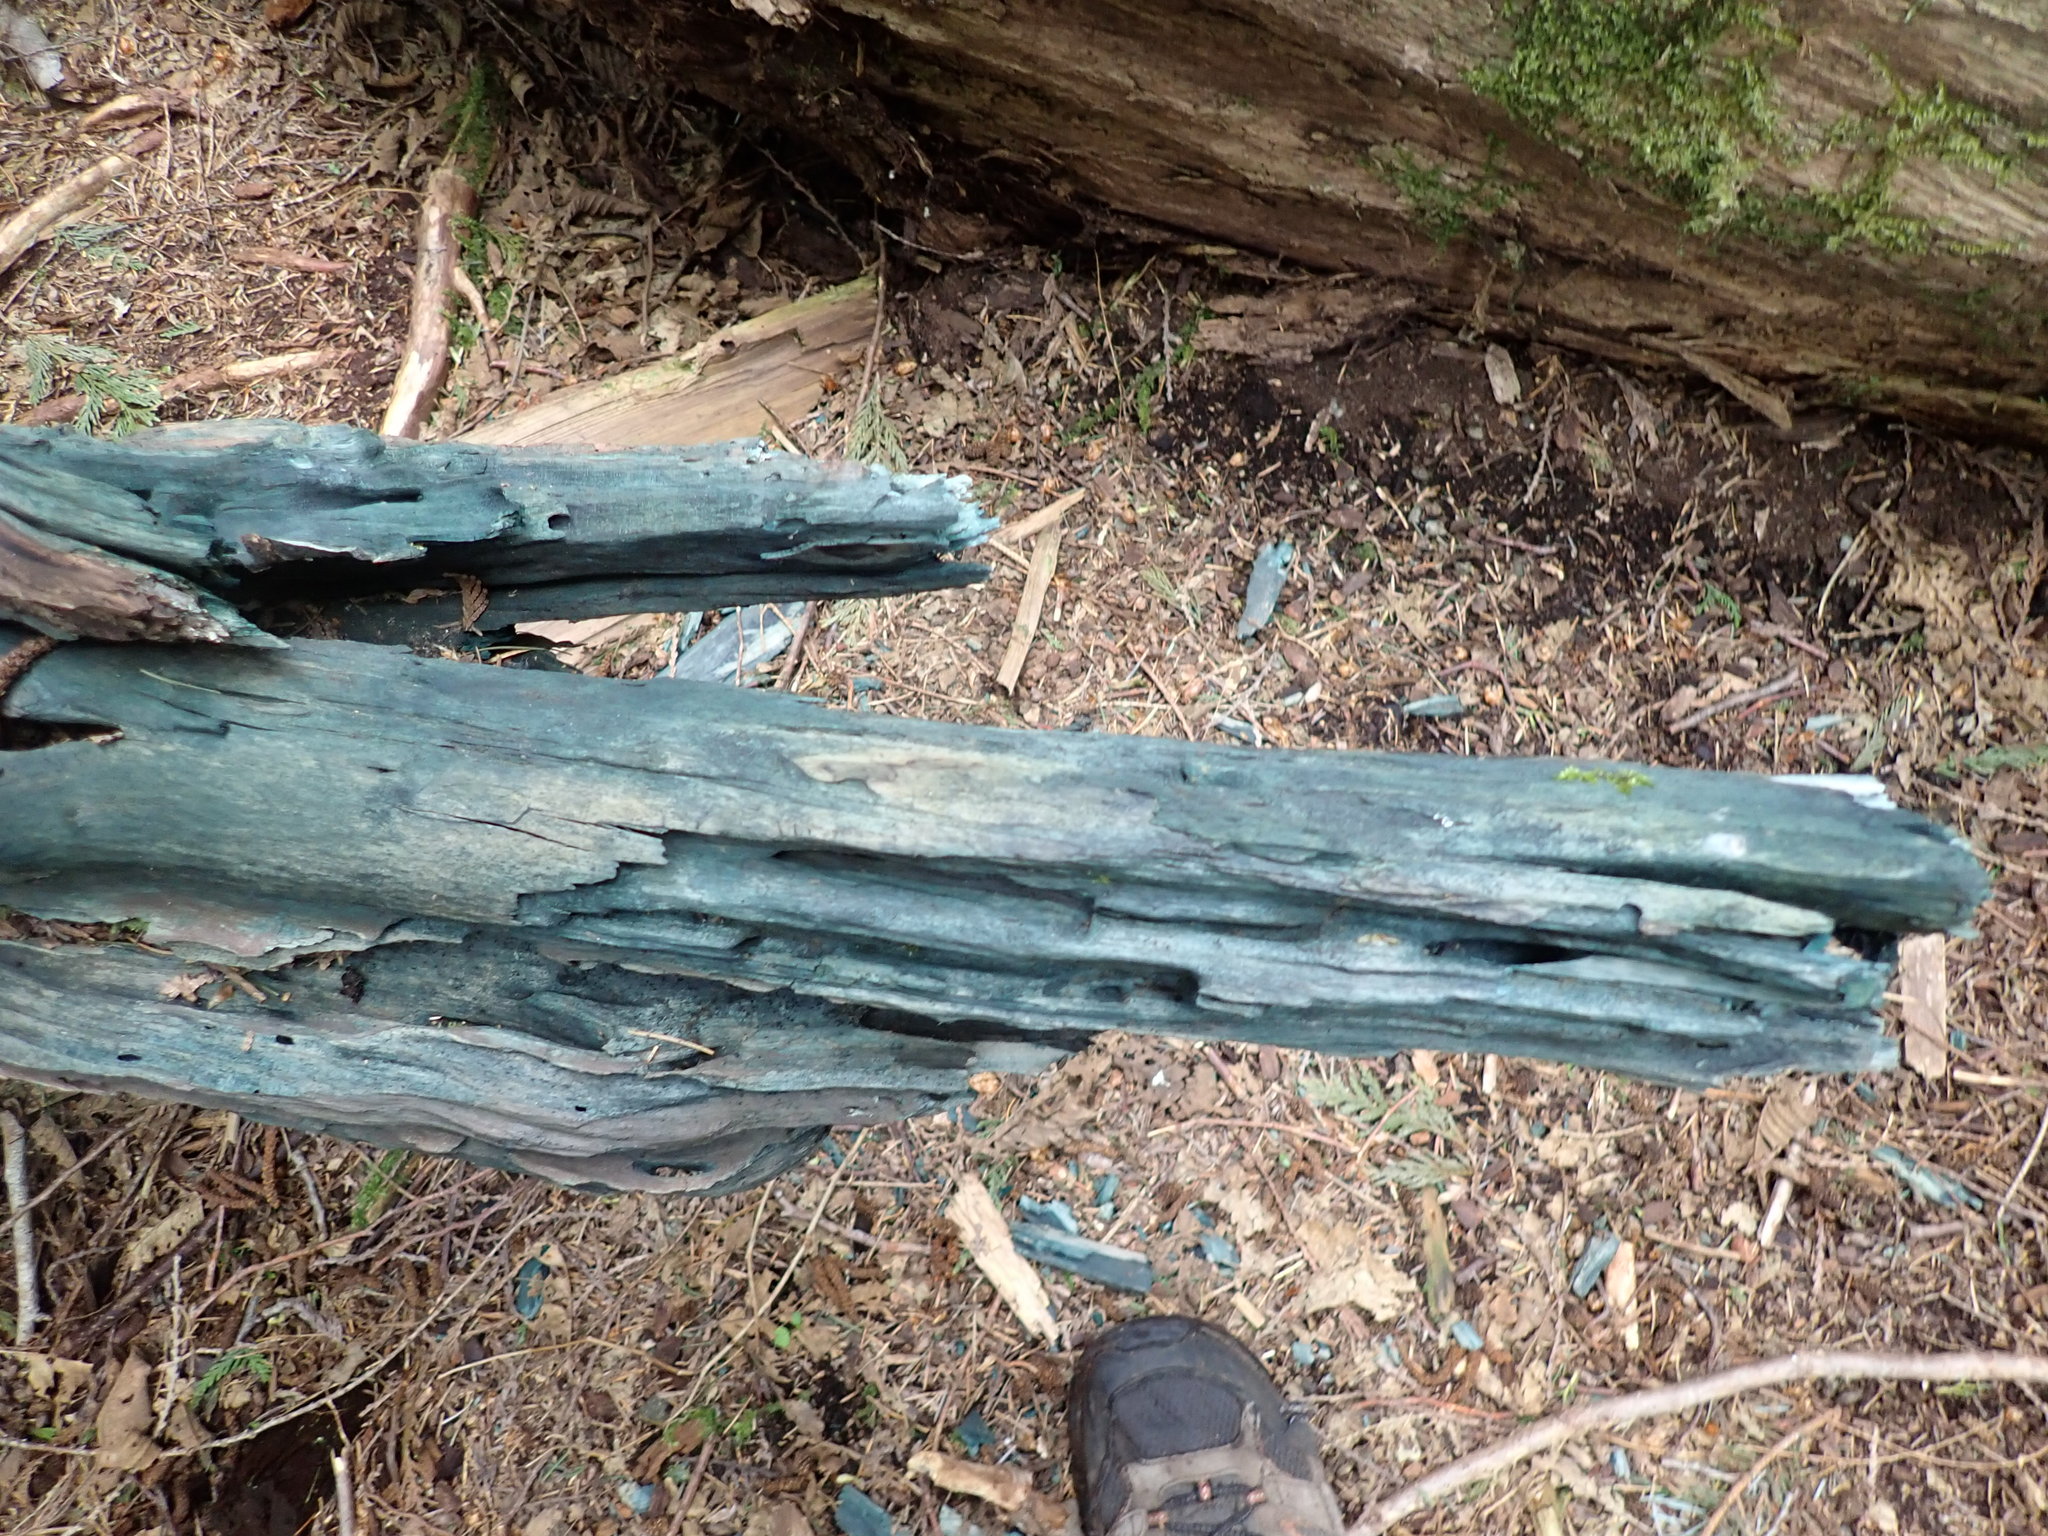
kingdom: Fungi
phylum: Ascomycota
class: Leotiomycetes
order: Helotiales
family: Chlorociboriaceae
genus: Chlorociboria
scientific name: Chlorociboria
